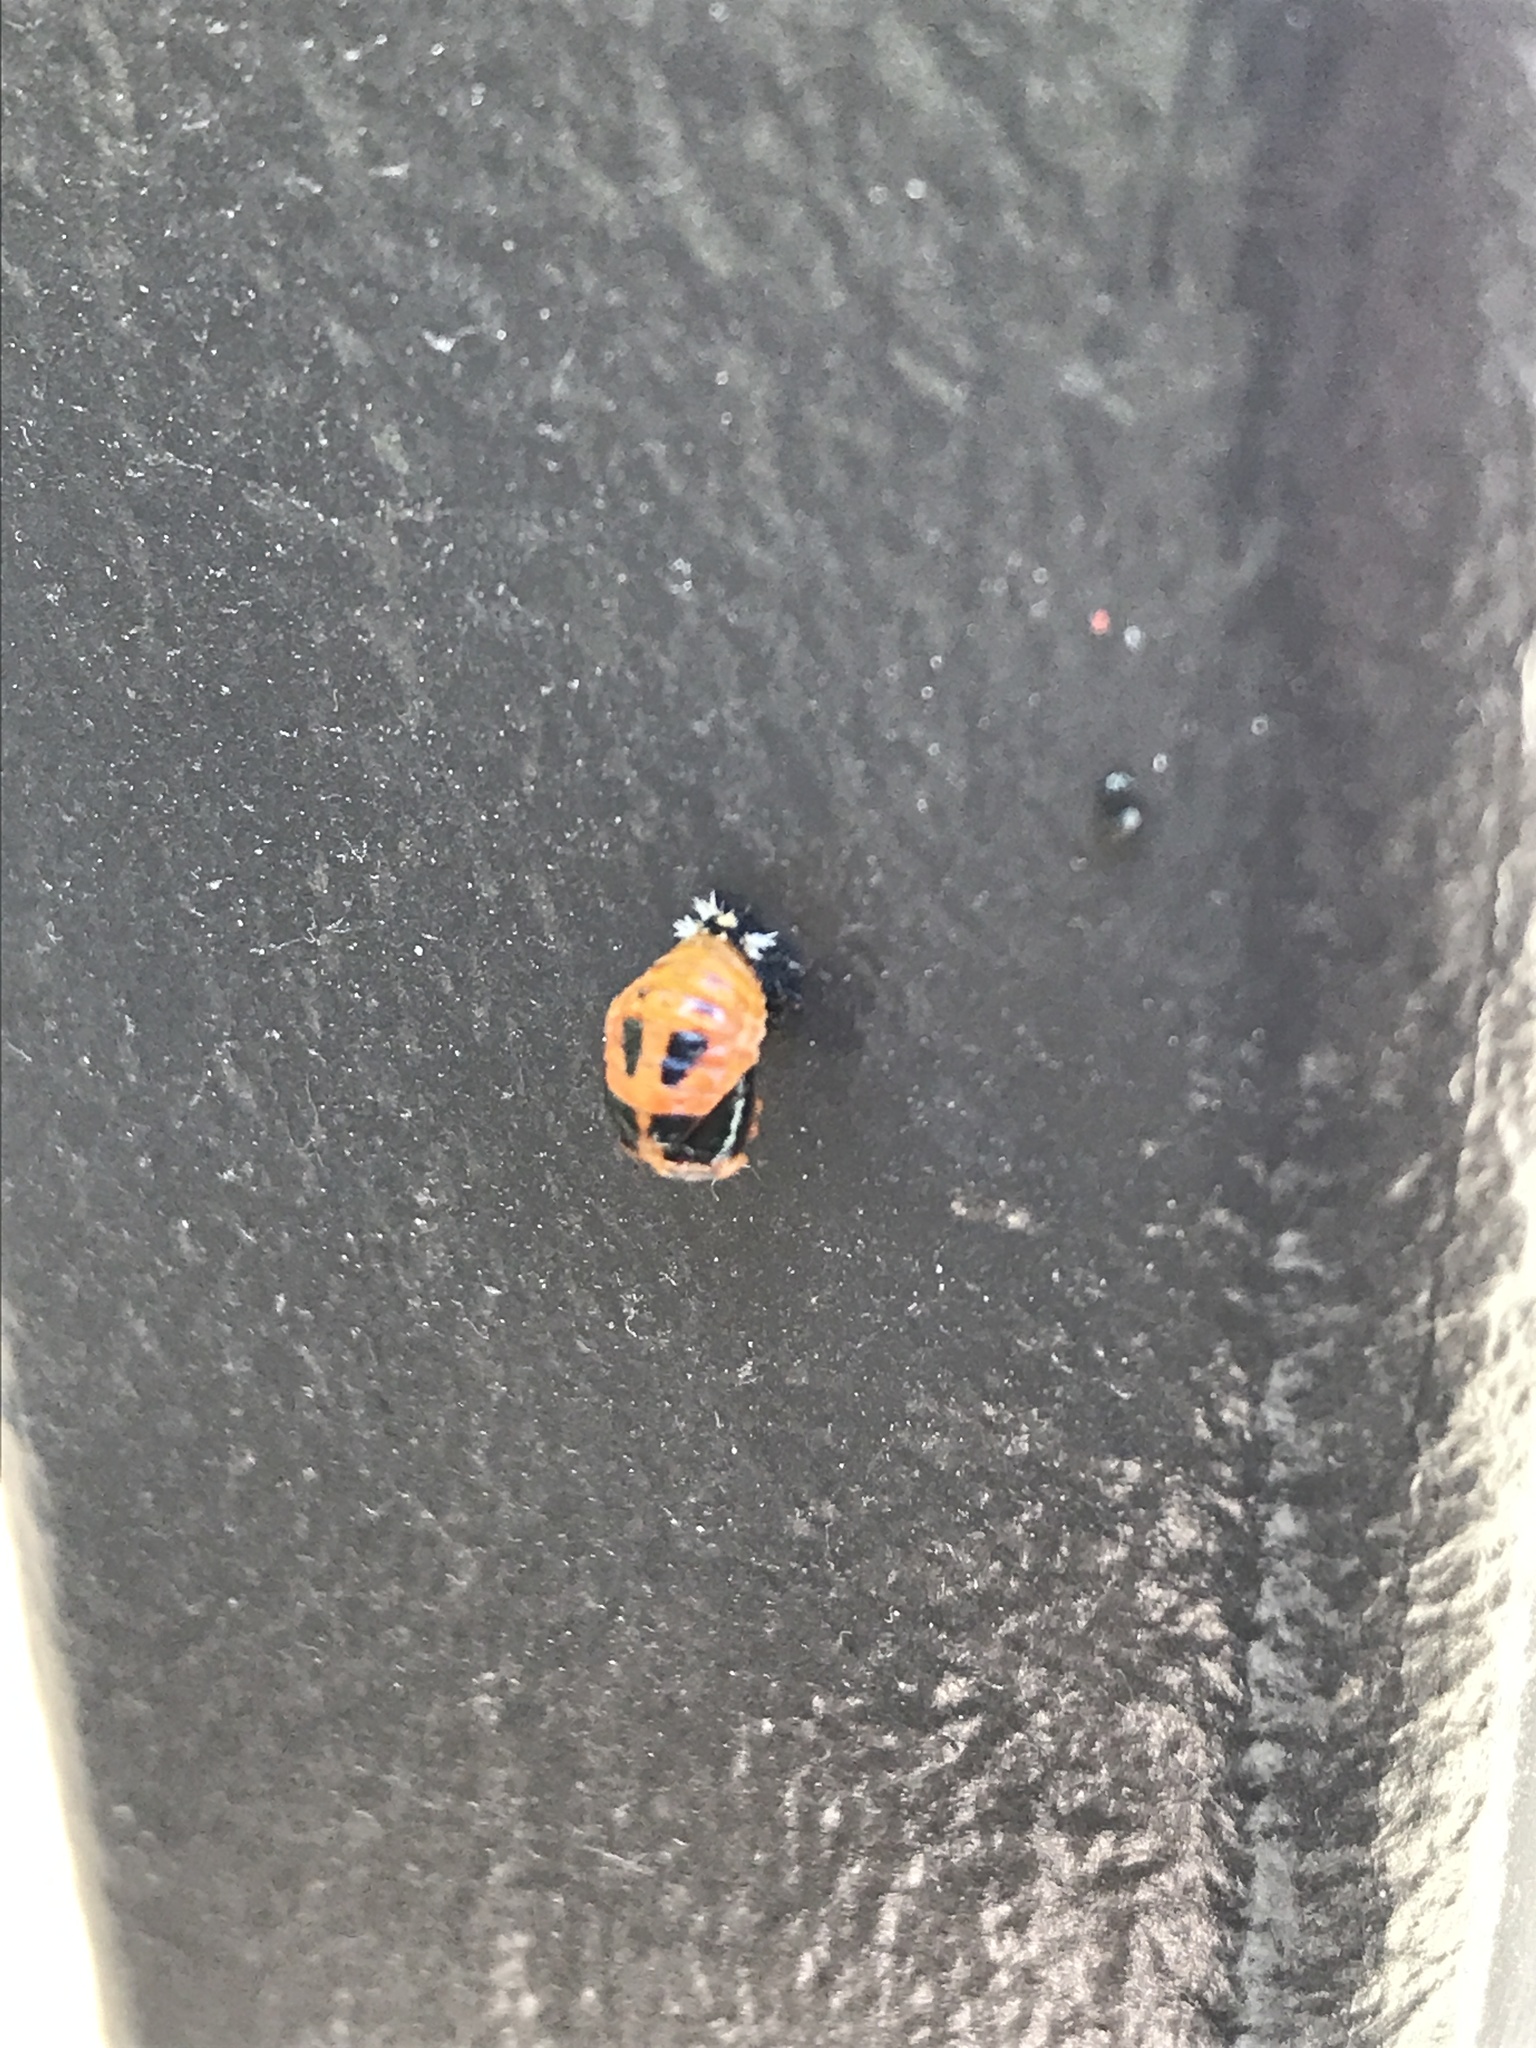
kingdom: Animalia
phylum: Arthropoda
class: Insecta
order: Coleoptera
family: Coccinellidae
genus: Harmonia
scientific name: Harmonia axyridis
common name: Harlequin ladybird
